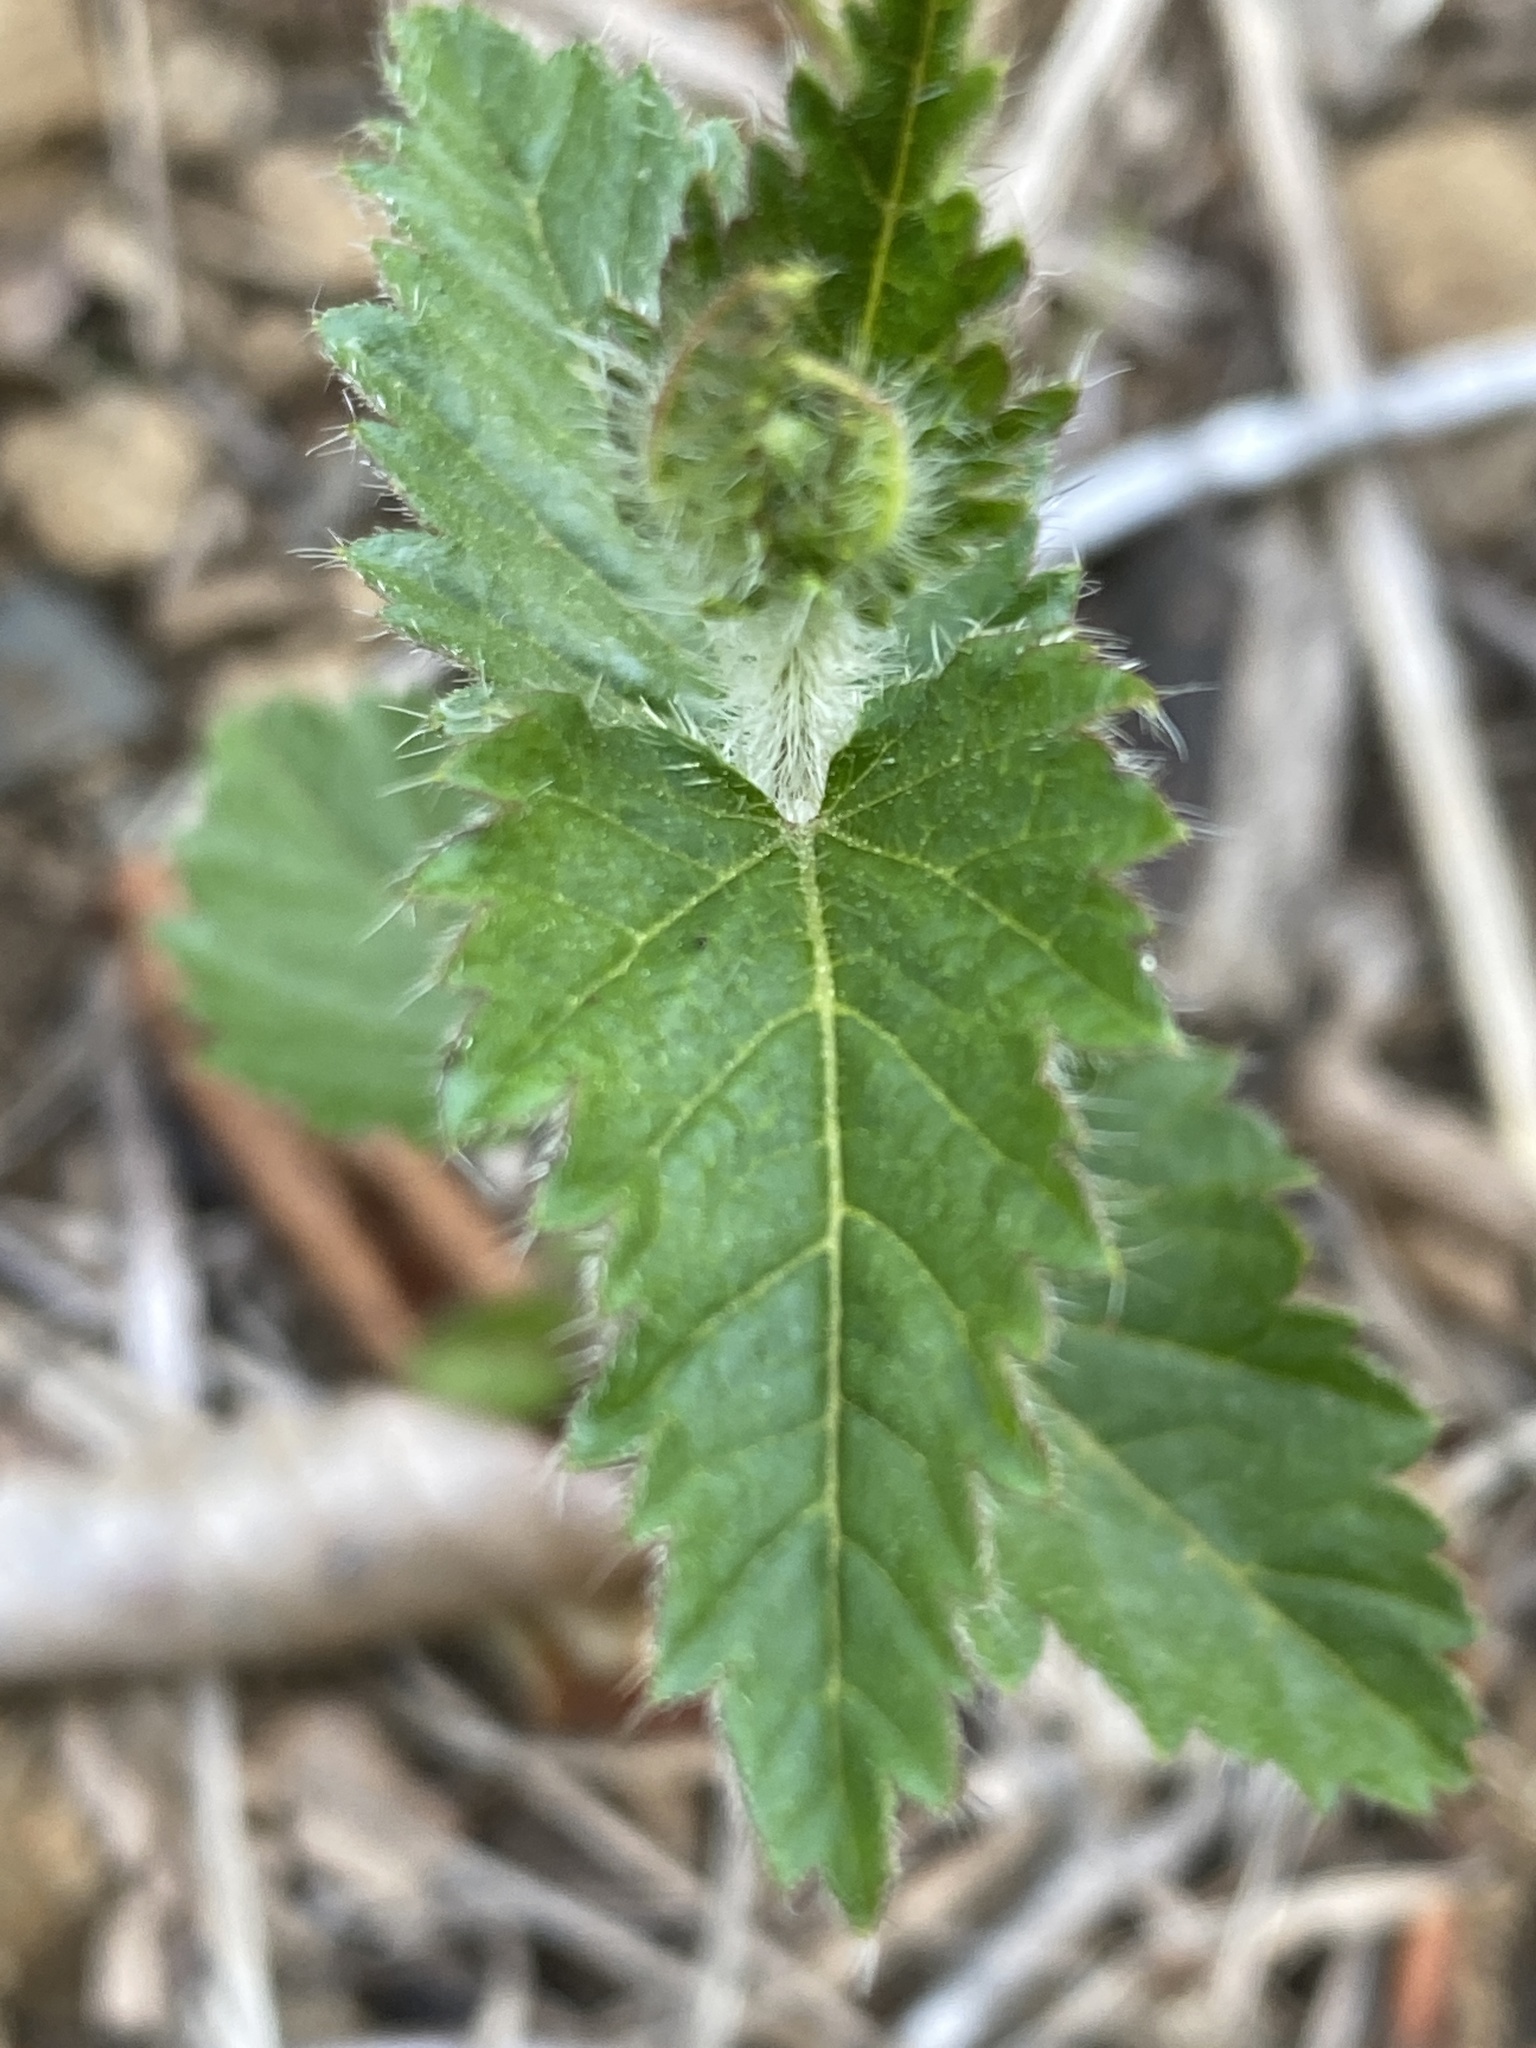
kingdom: Plantae
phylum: Tracheophyta
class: Magnoliopsida
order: Malpighiales
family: Euphorbiaceae
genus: Tragia
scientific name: Tragia urticifolia
